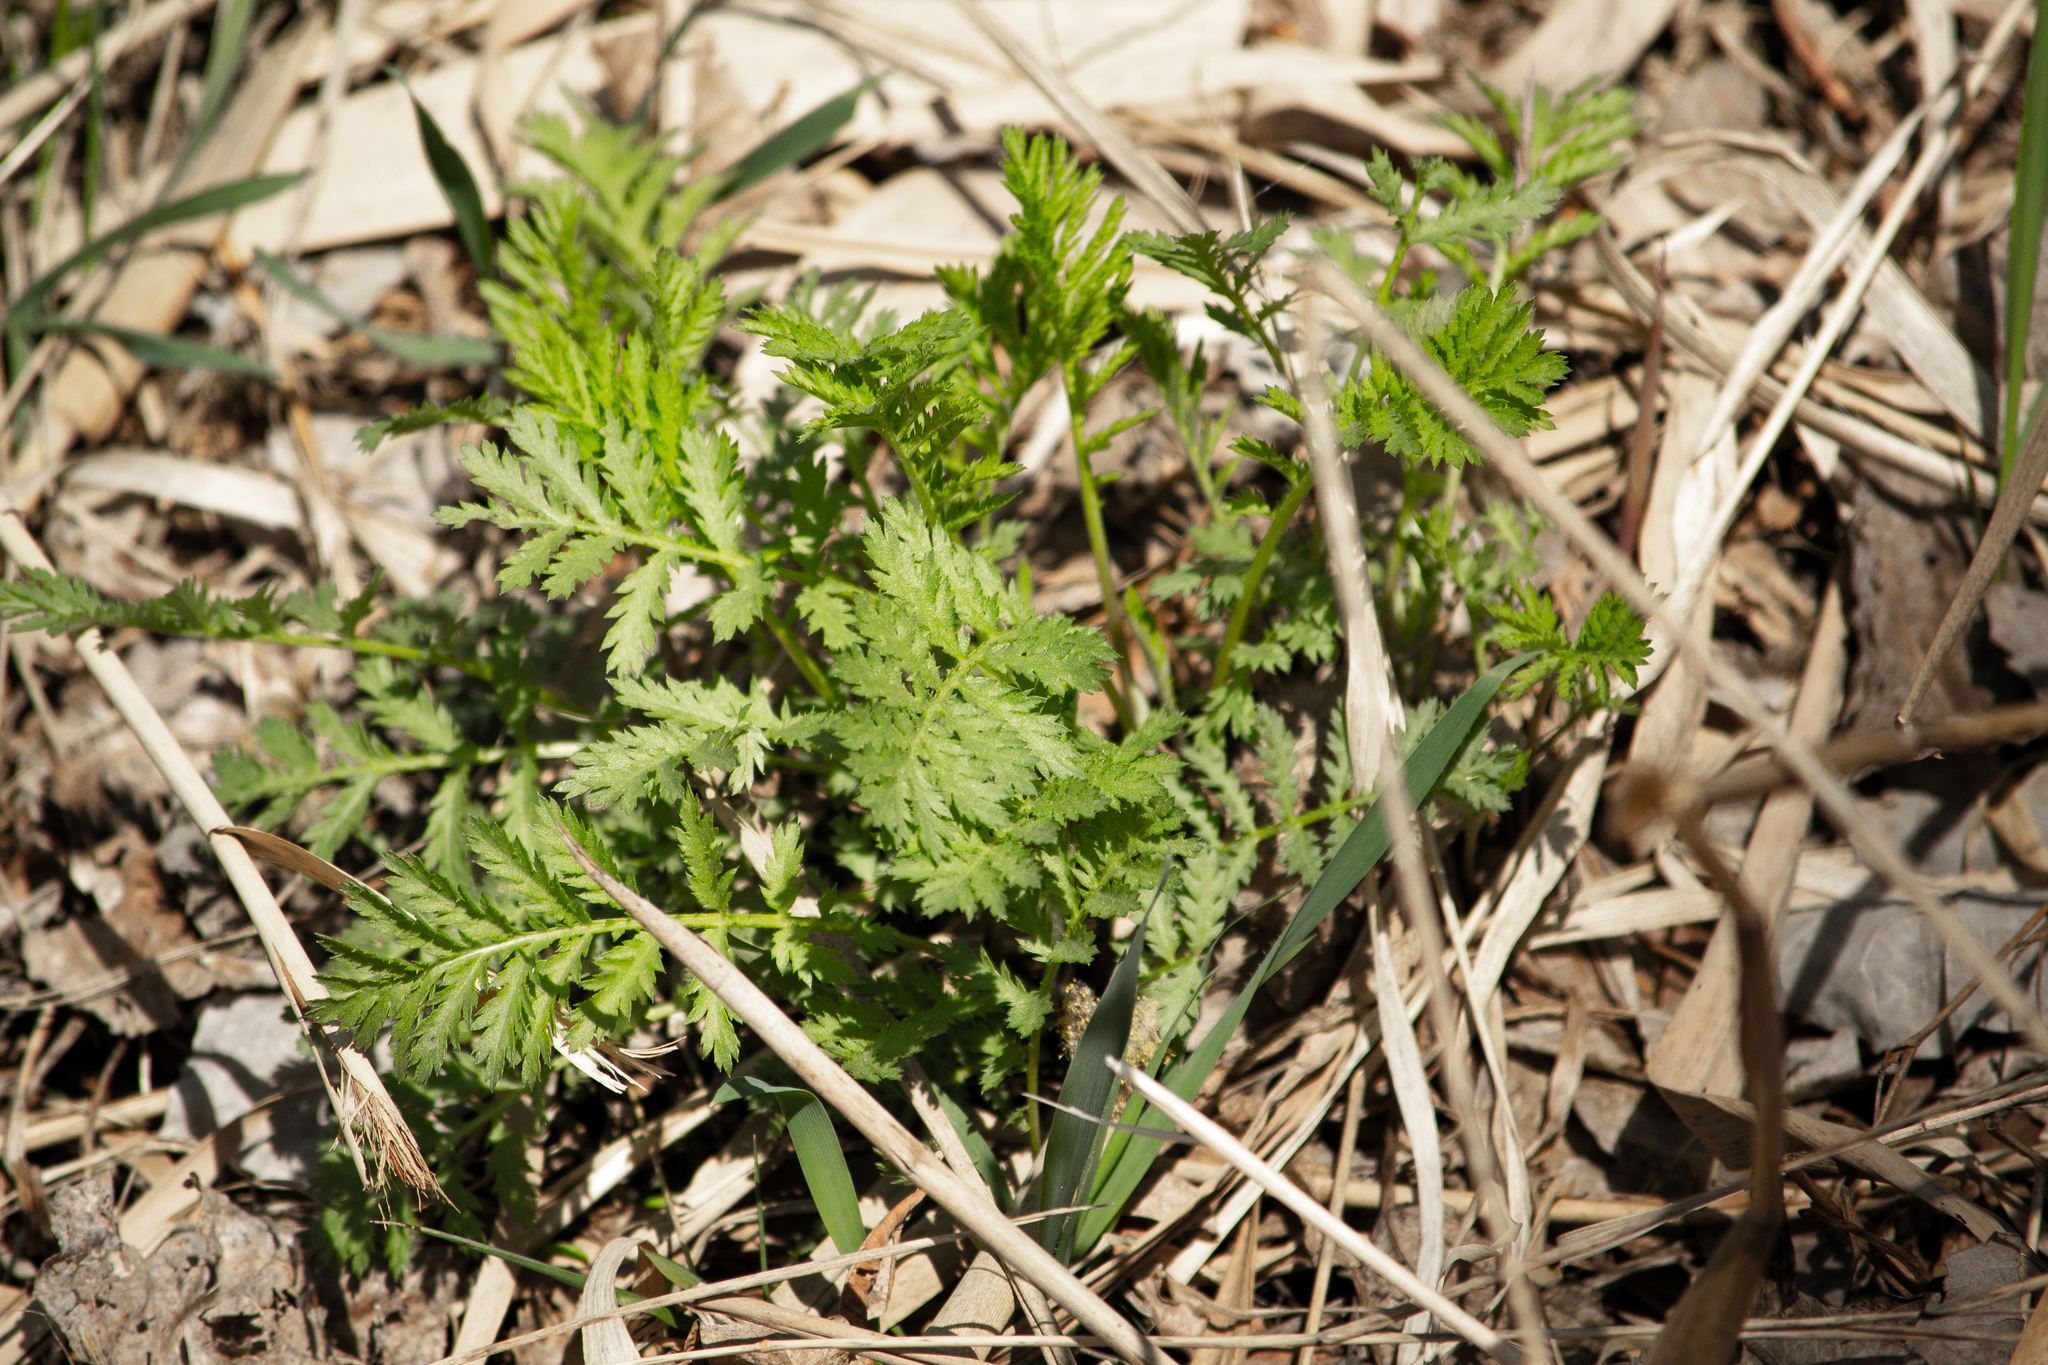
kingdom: Plantae
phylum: Tracheophyta
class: Magnoliopsida
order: Asterales
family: Asteraceae
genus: Tanacetum
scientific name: Tanacetum vulgare
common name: Common tansy
